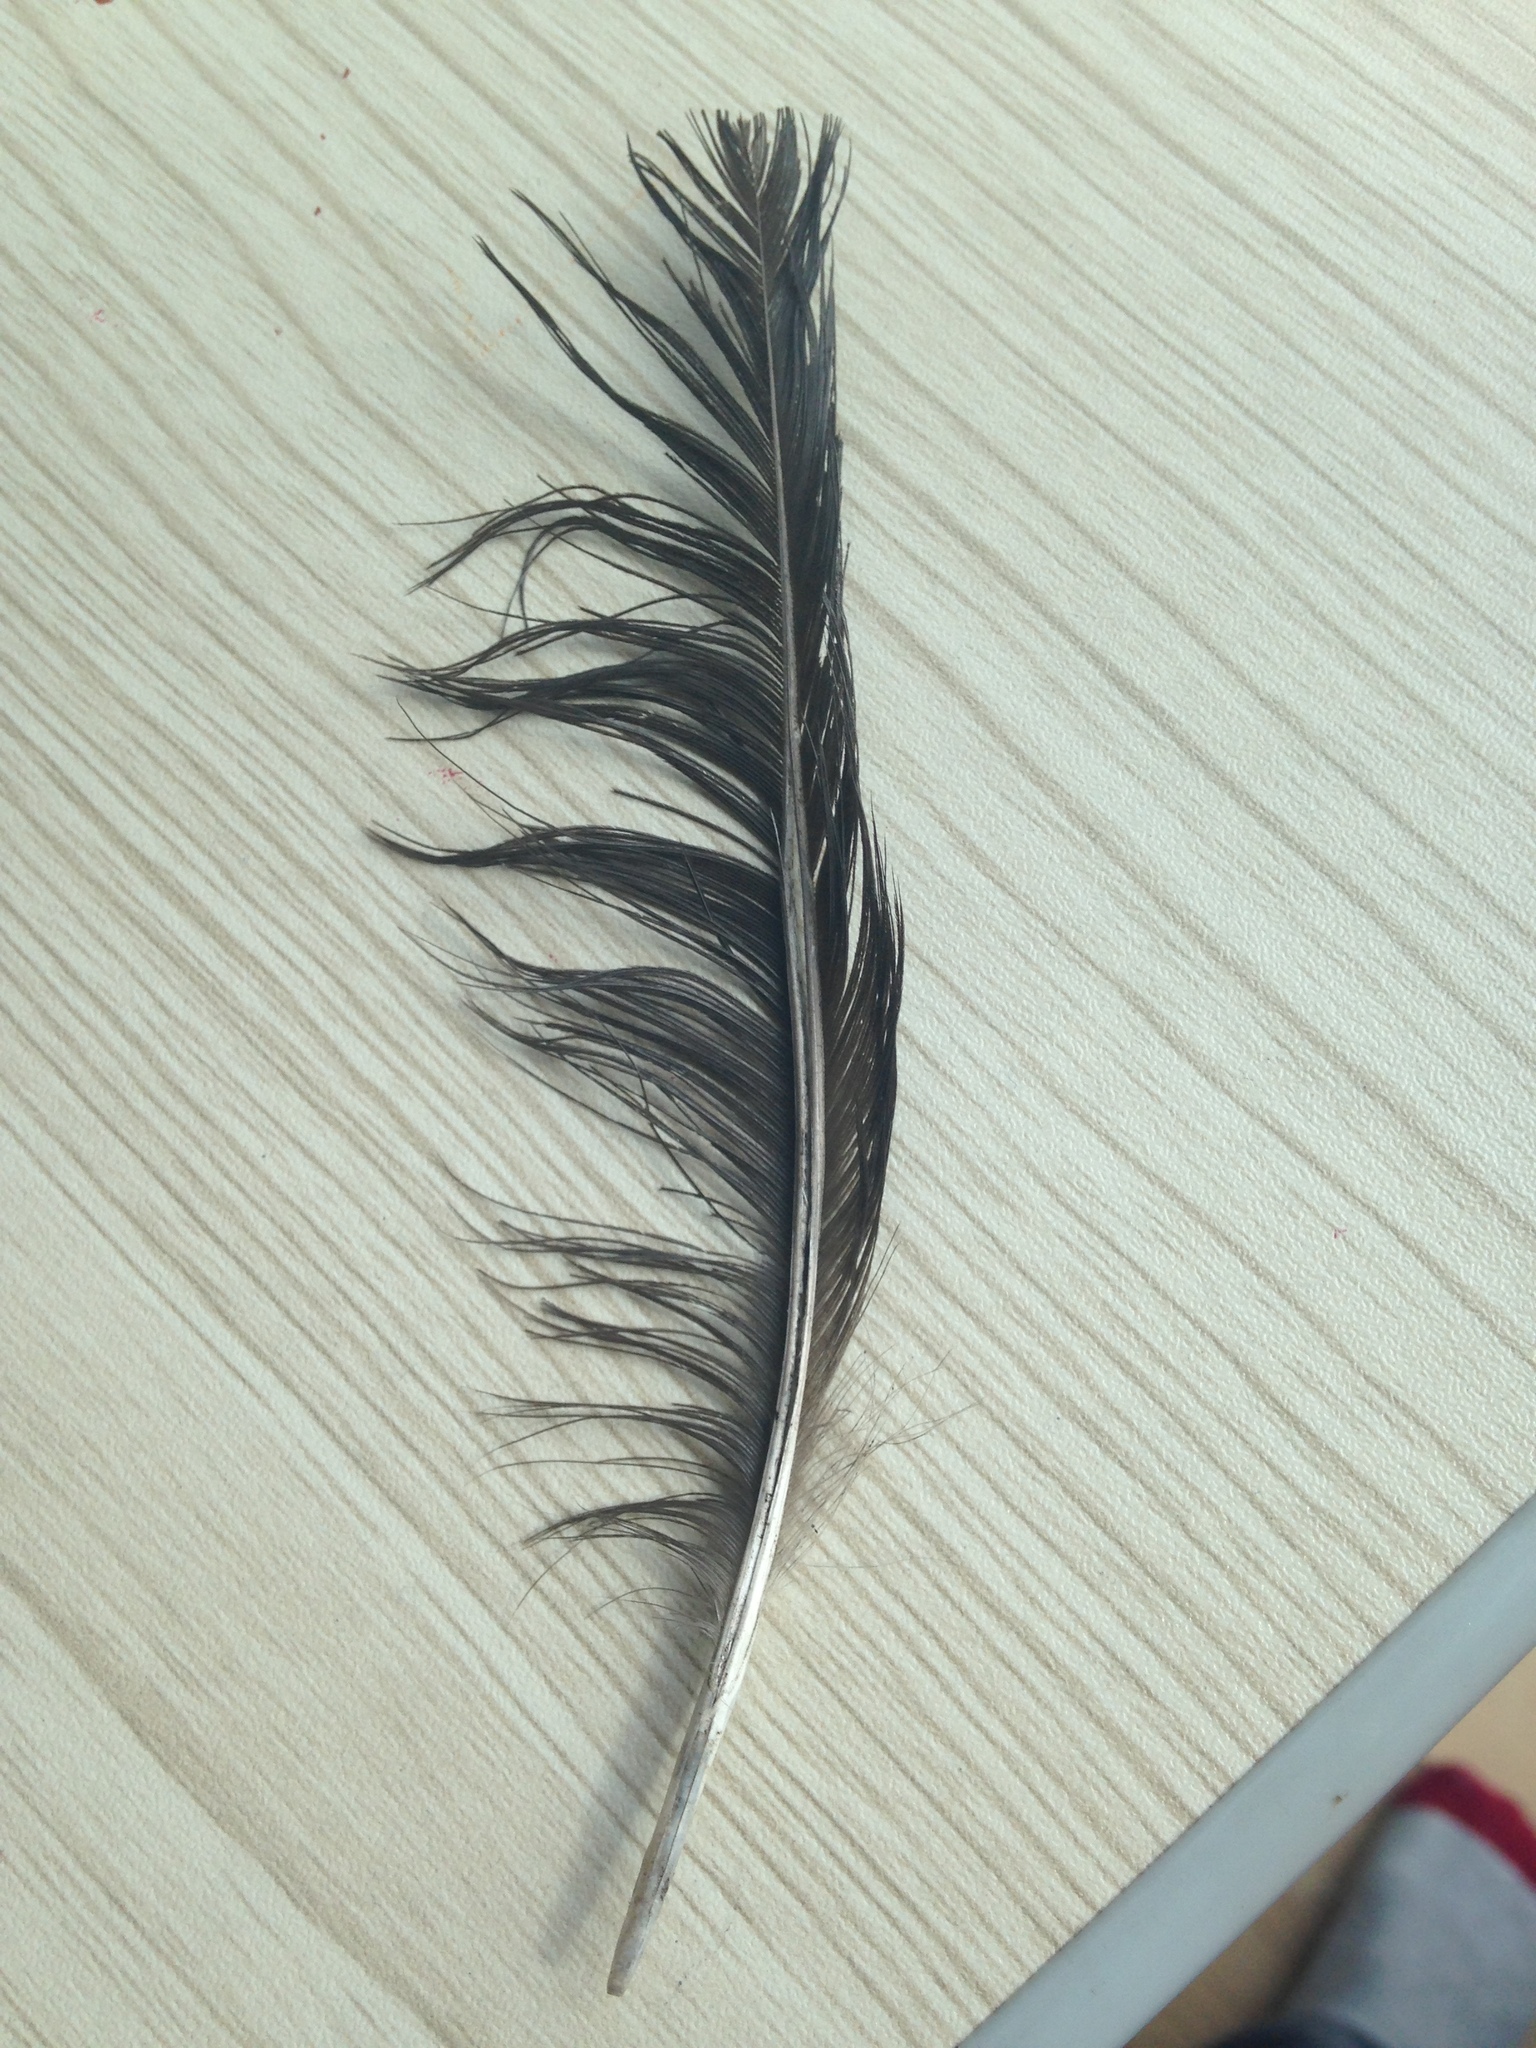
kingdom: Animalia
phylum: Chordata
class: Aves
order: Passeriformes
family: Corvidae
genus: Pica
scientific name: Pica pica
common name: Eurasian magpie
